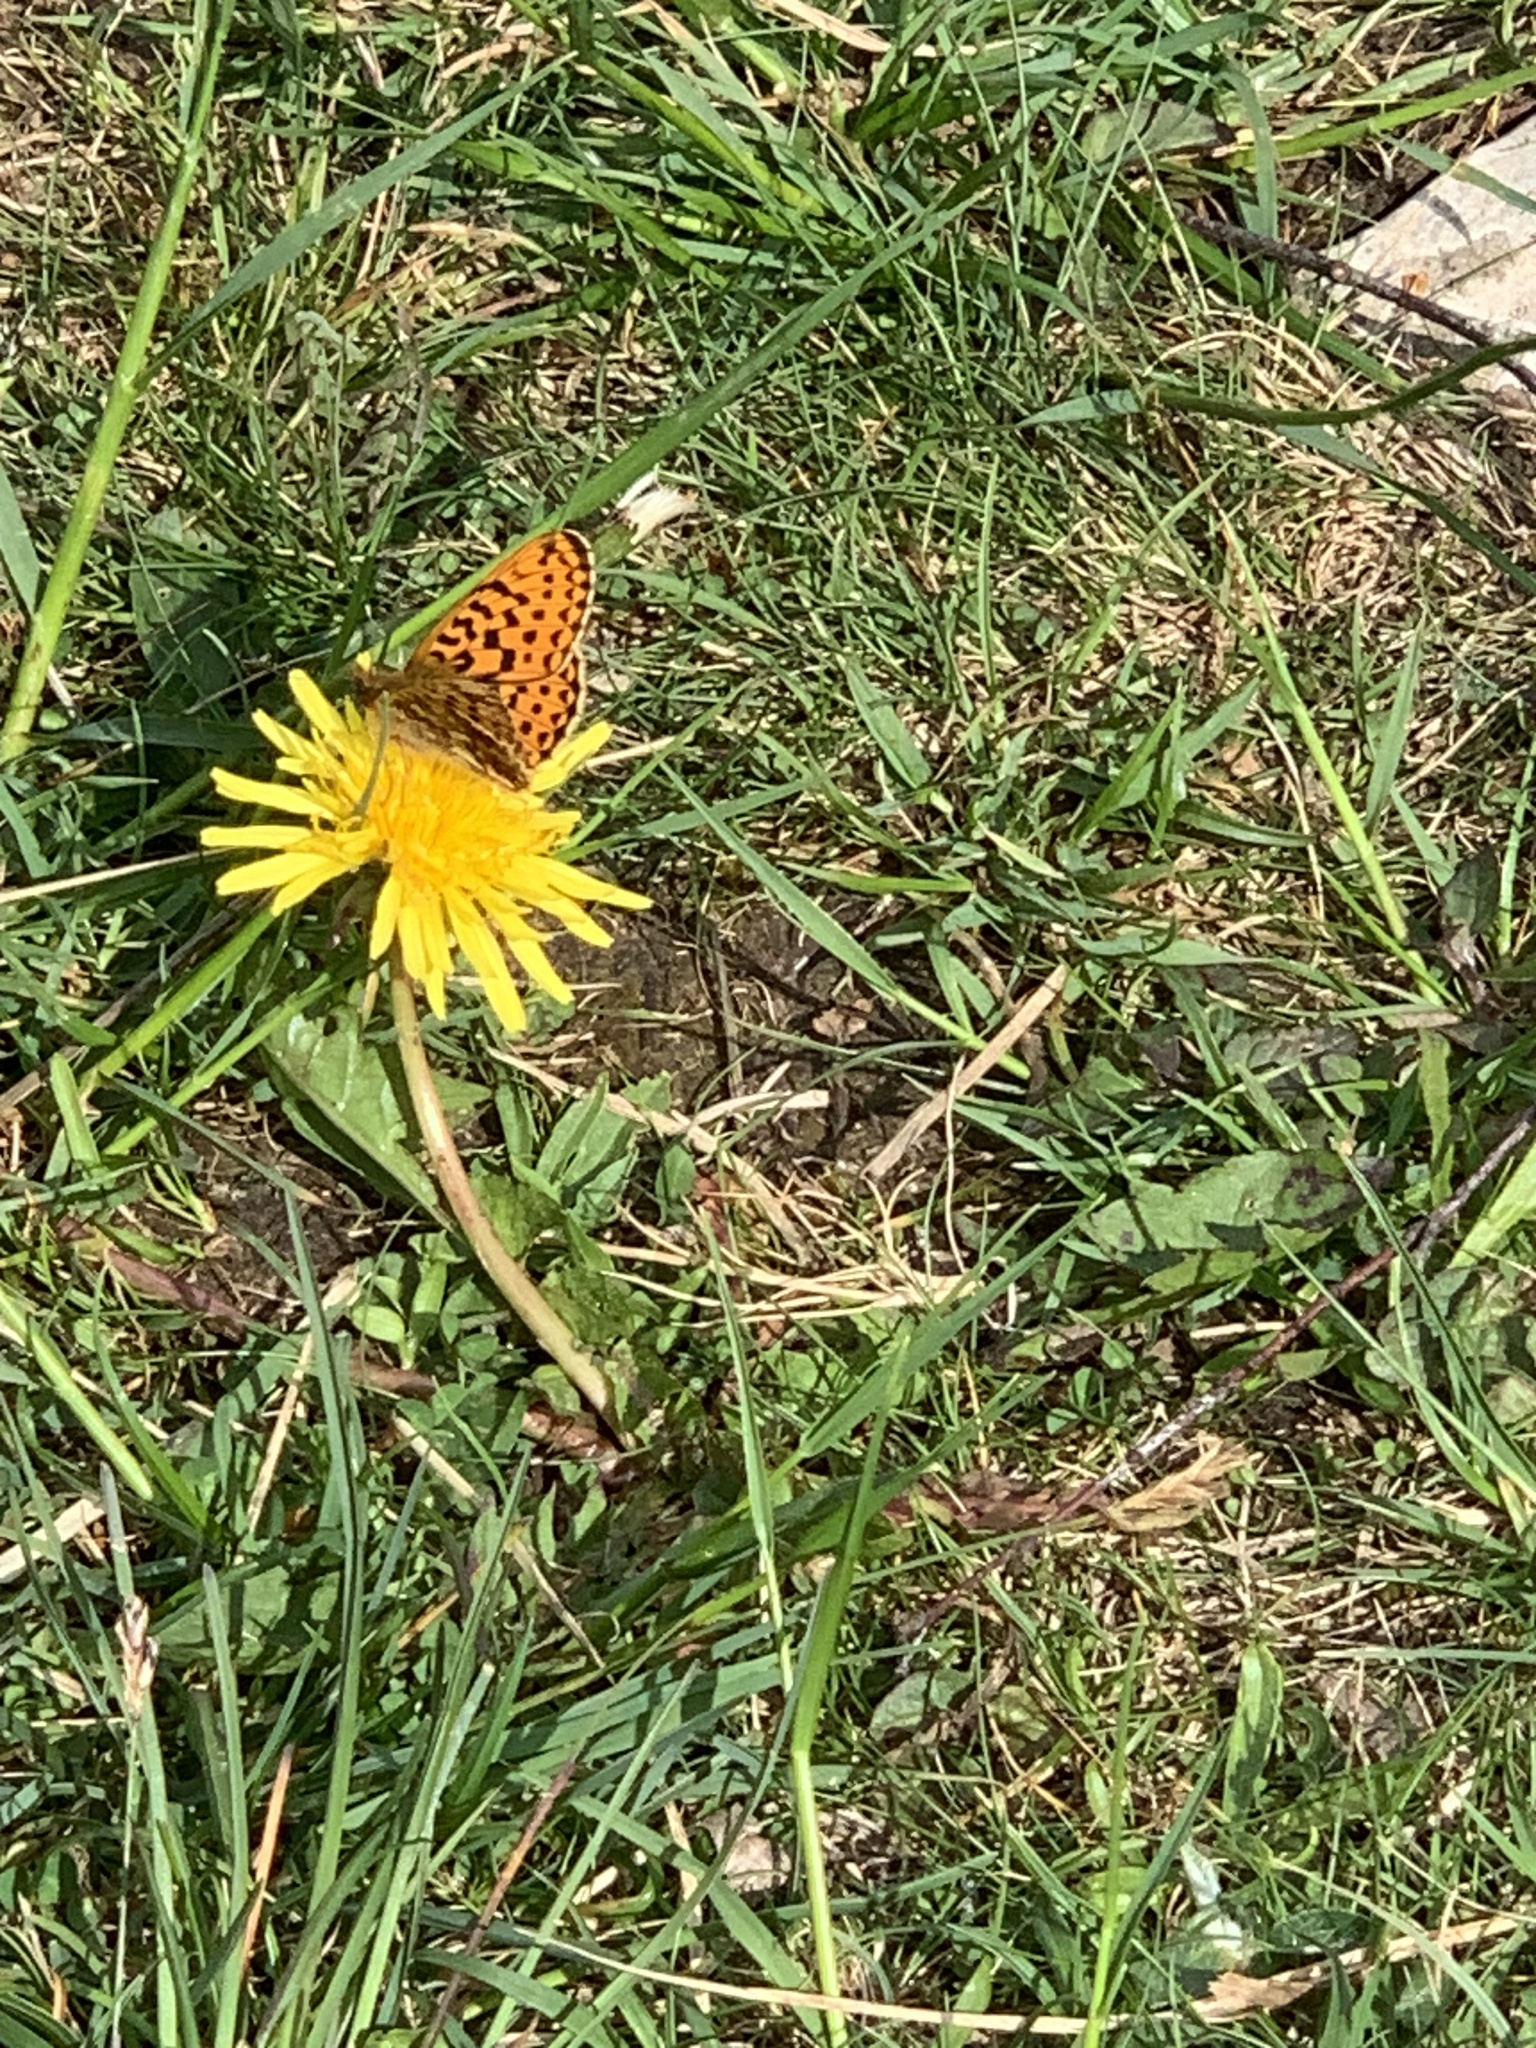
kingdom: Animalia
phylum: Arthropoda
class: Insecta
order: Lepidoptera
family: Nymphalidae
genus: Clossiana
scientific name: Clossiana euphrosyne
